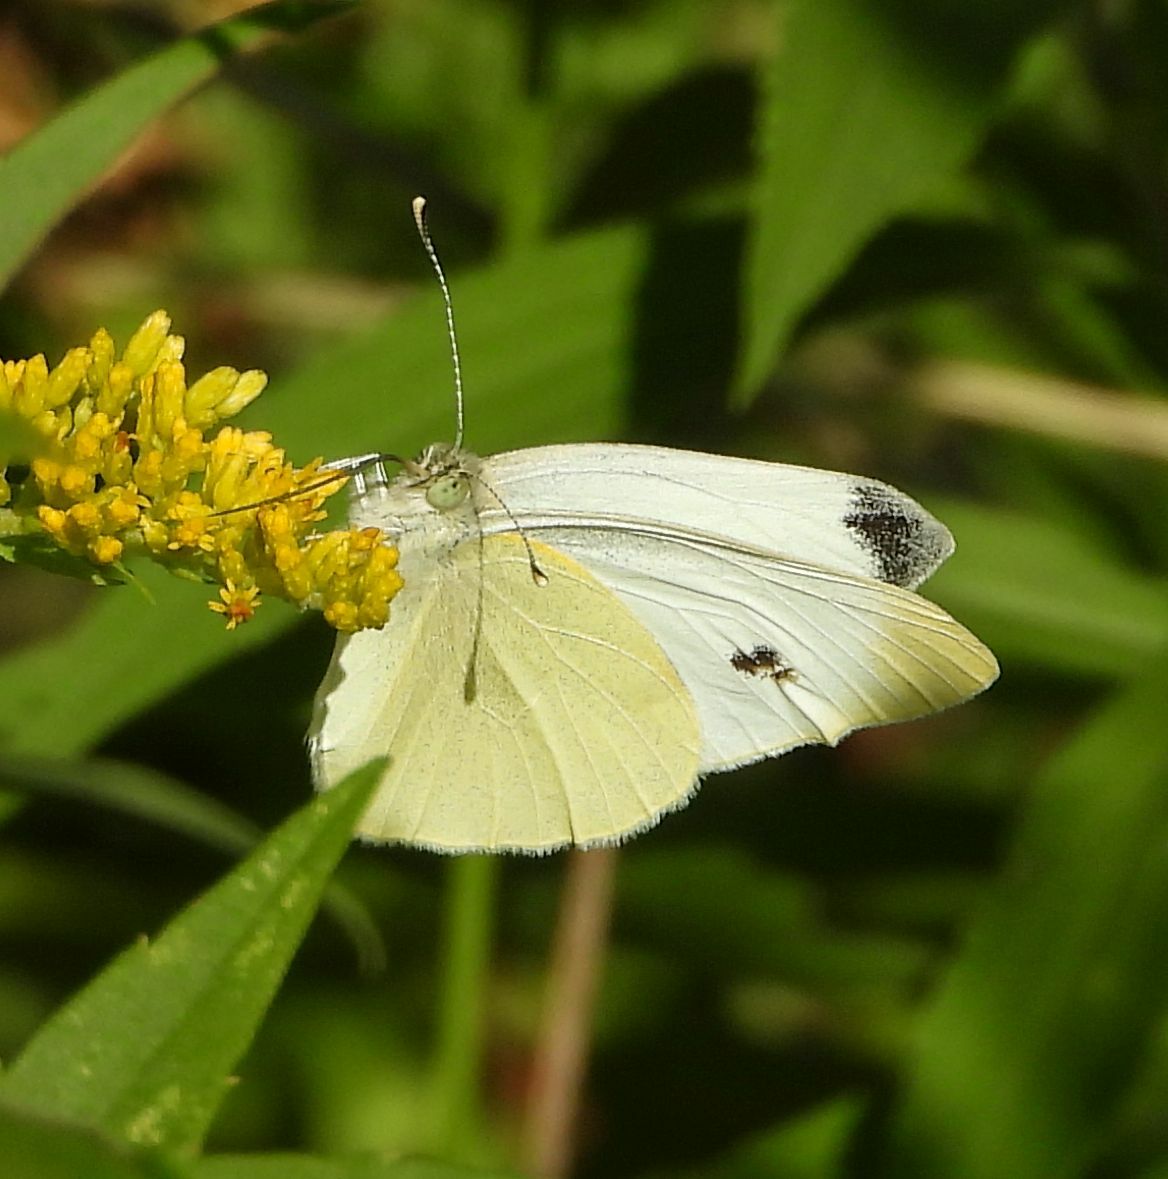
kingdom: Animalia
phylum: Arthropoda
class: Insecta
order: Lepidoptera
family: Pieridae
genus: Pieris
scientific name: Pieris rapae
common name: Small white
